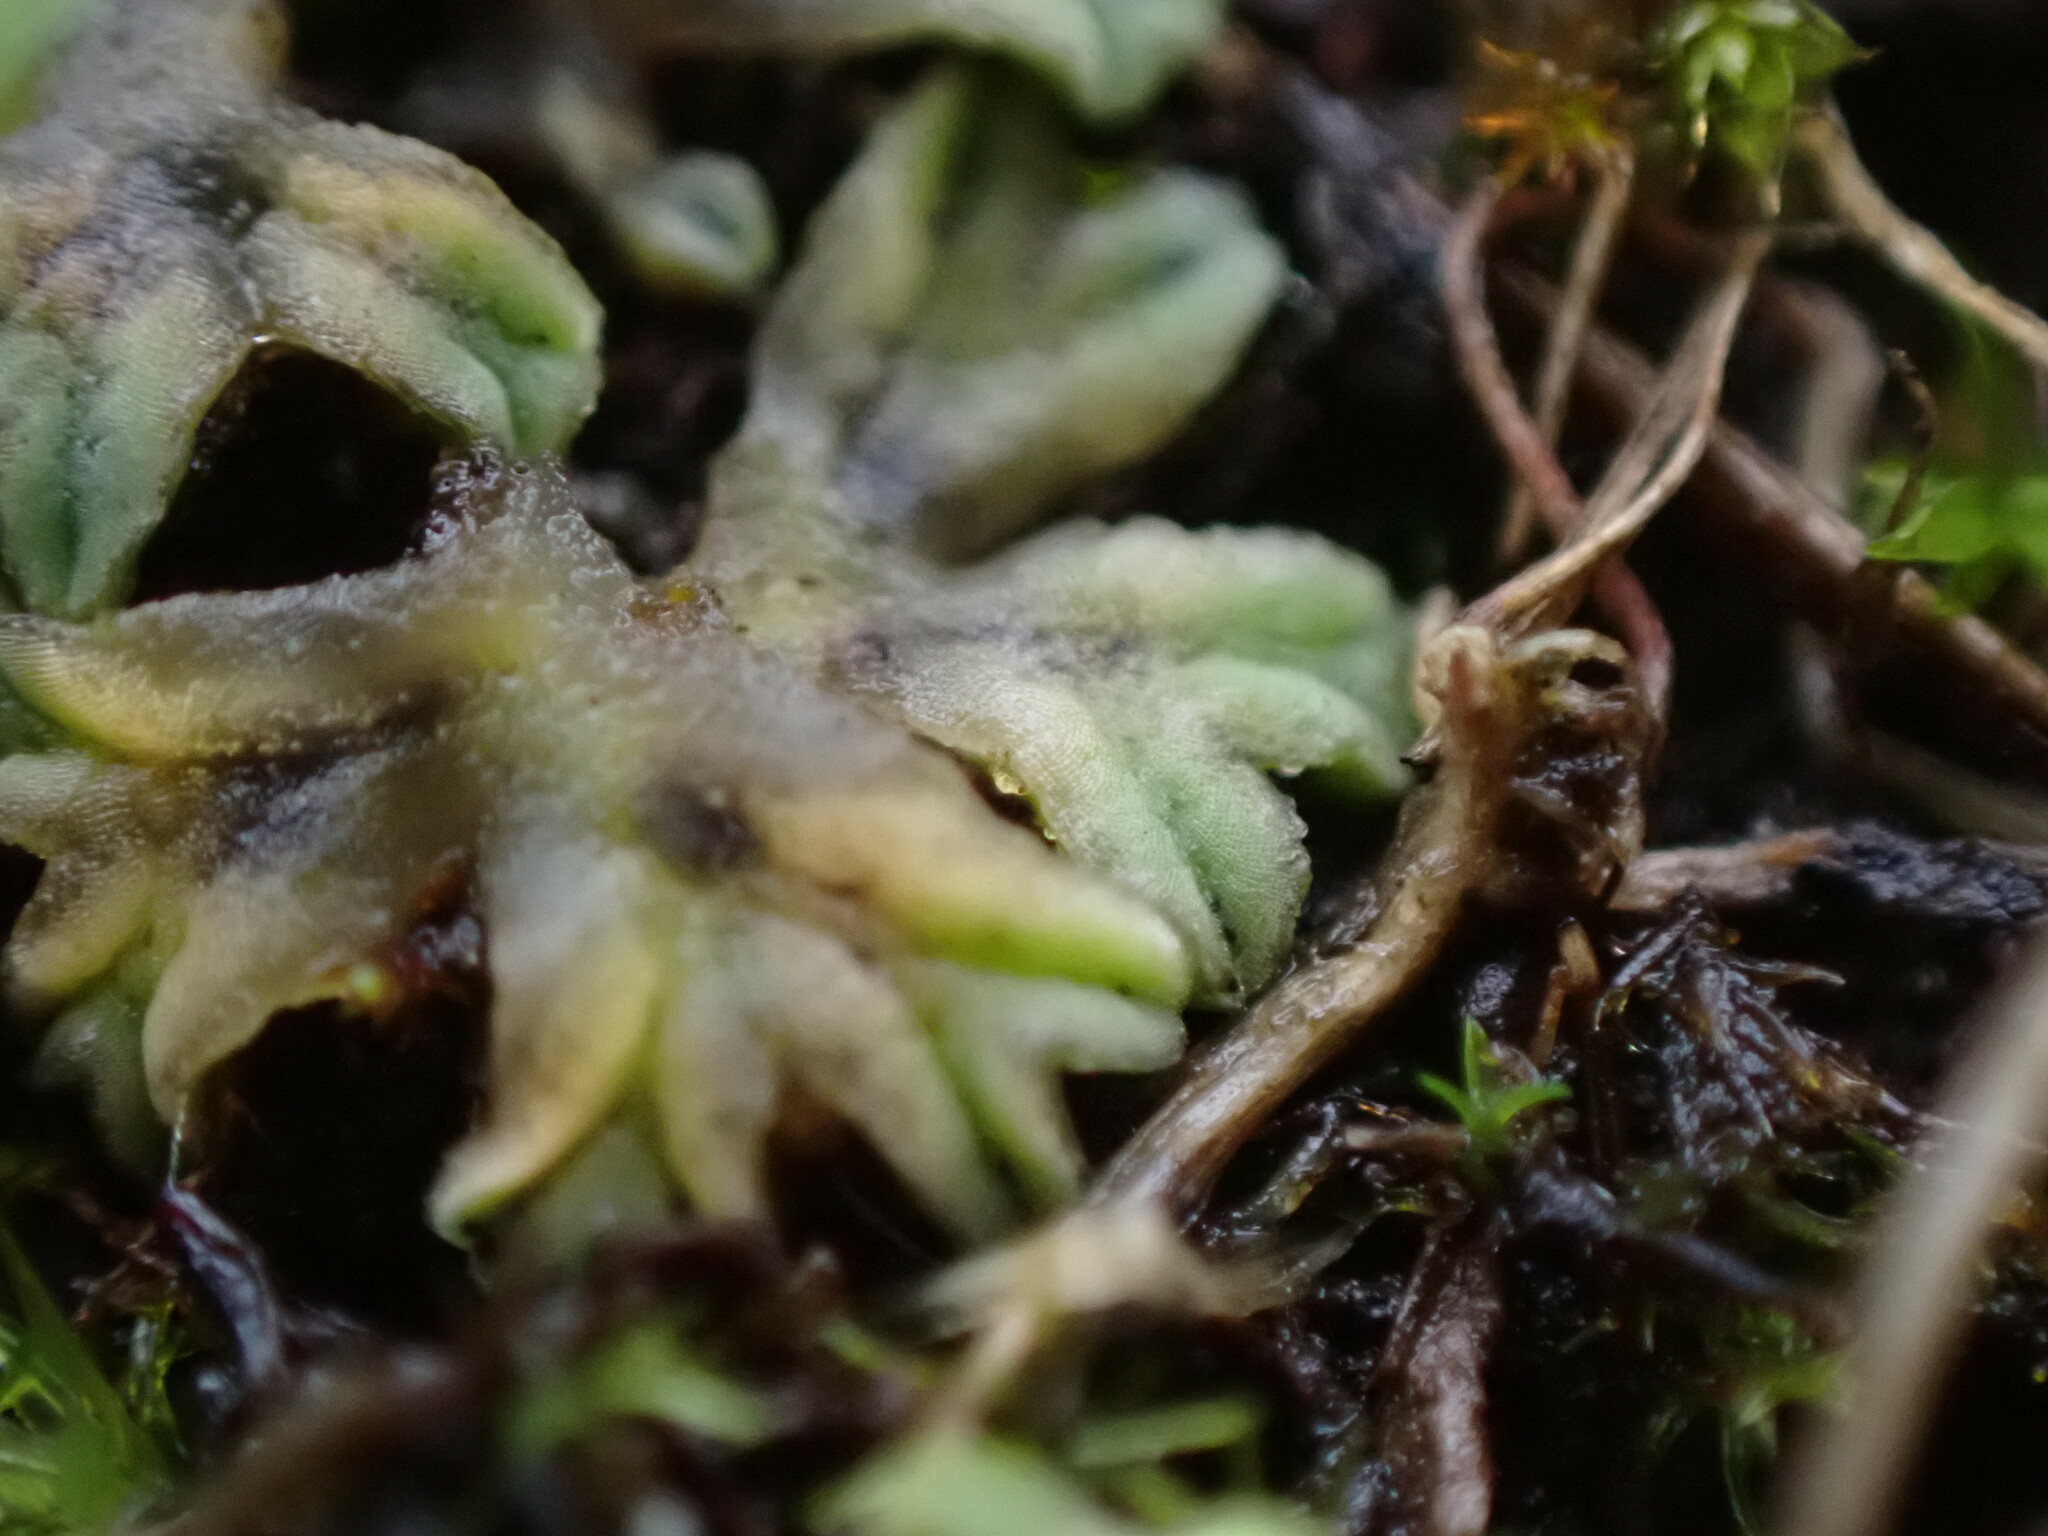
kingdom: Plantae
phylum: Marchantiophyta
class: Marchantiopsida
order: Marchantiales
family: Ricciaceae
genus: Riccia
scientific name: Riccia sorocarpa
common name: Common crystalwort
